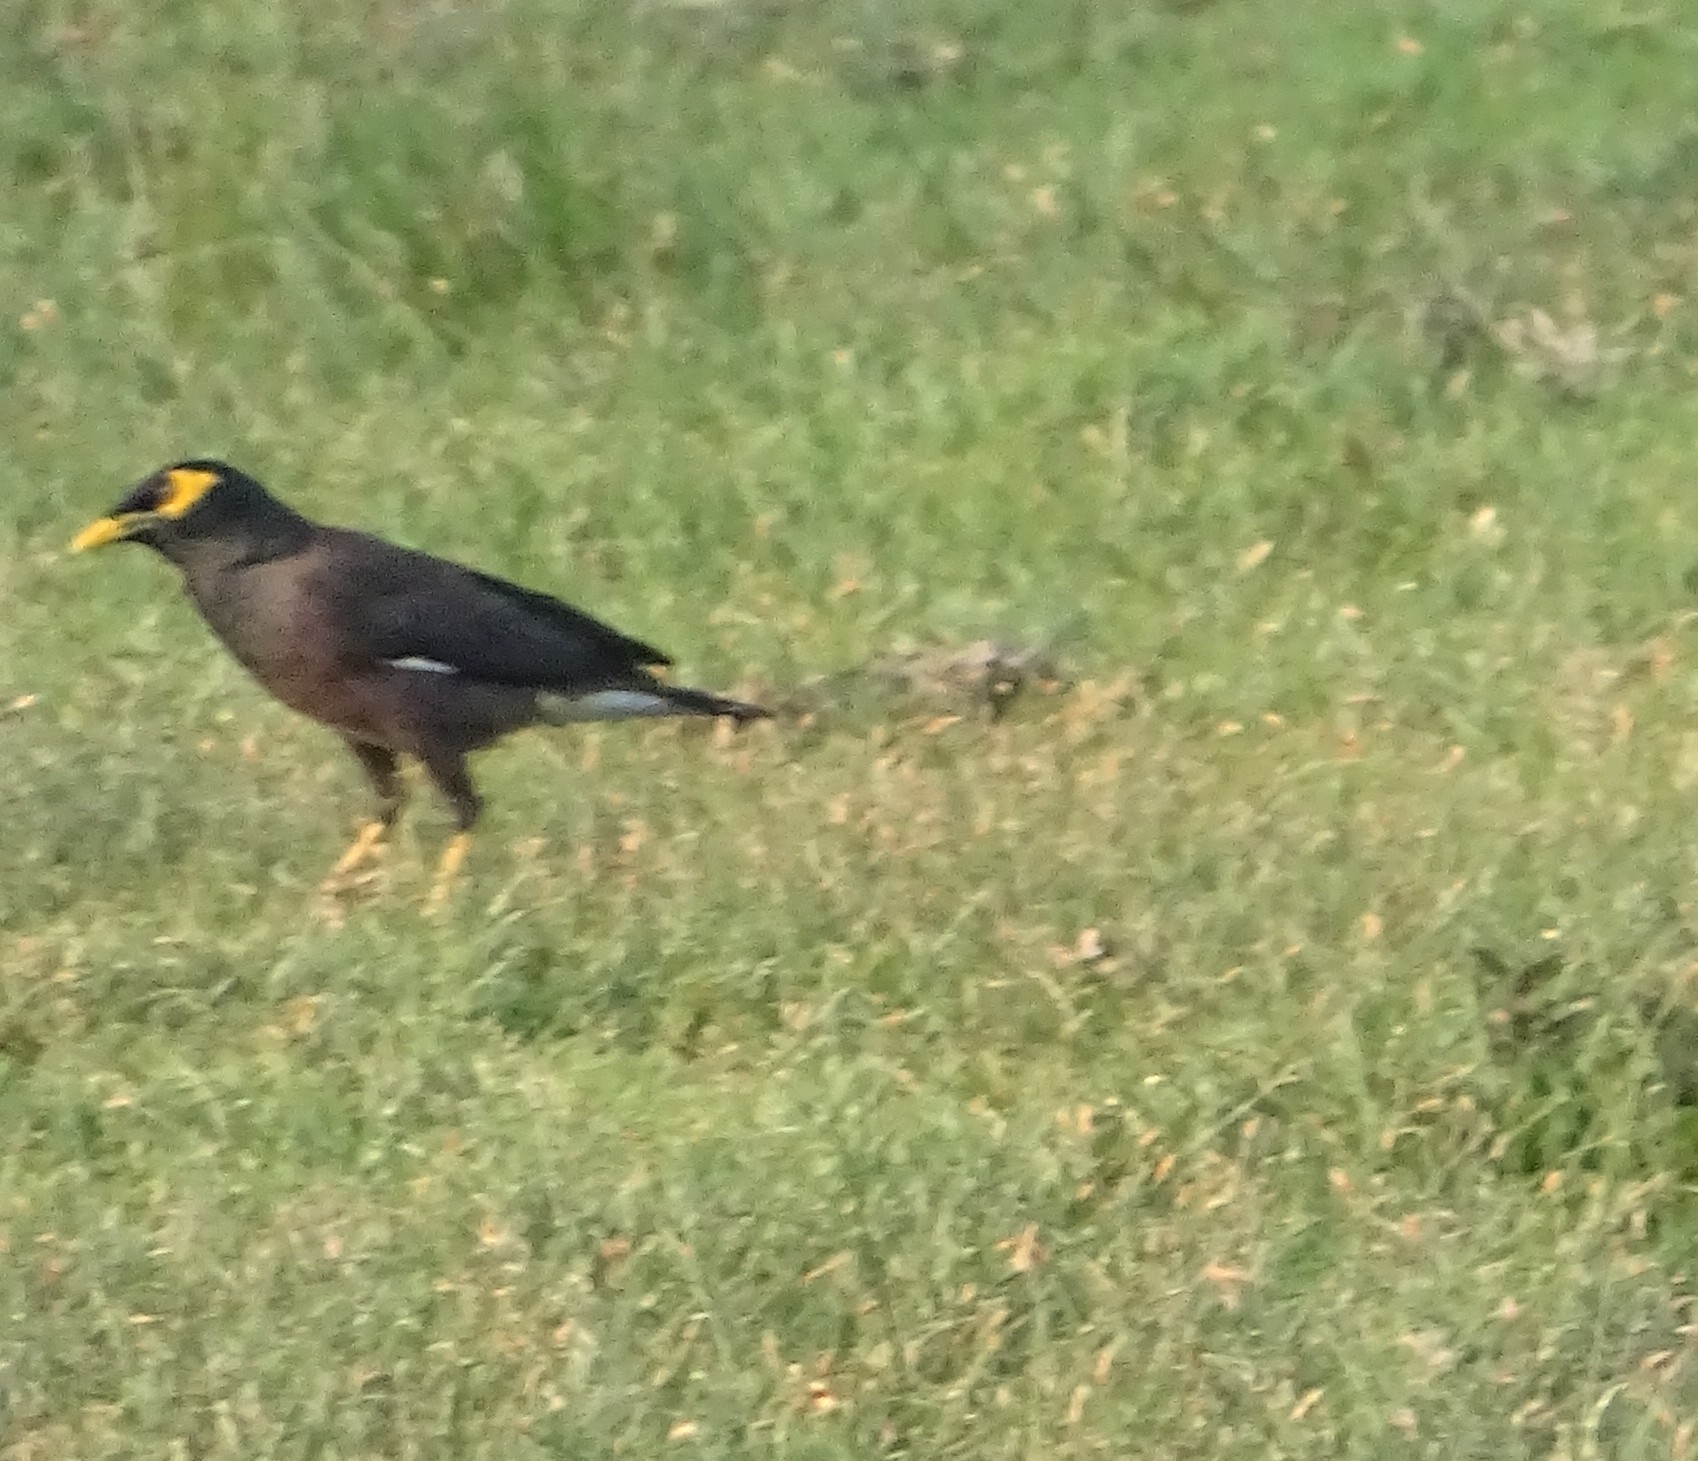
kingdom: Animalia
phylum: Chordata
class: Aves
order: Passeriformes
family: Sturnidae
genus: Acridotheres
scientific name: Acridotheres tristis
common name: Common myna
